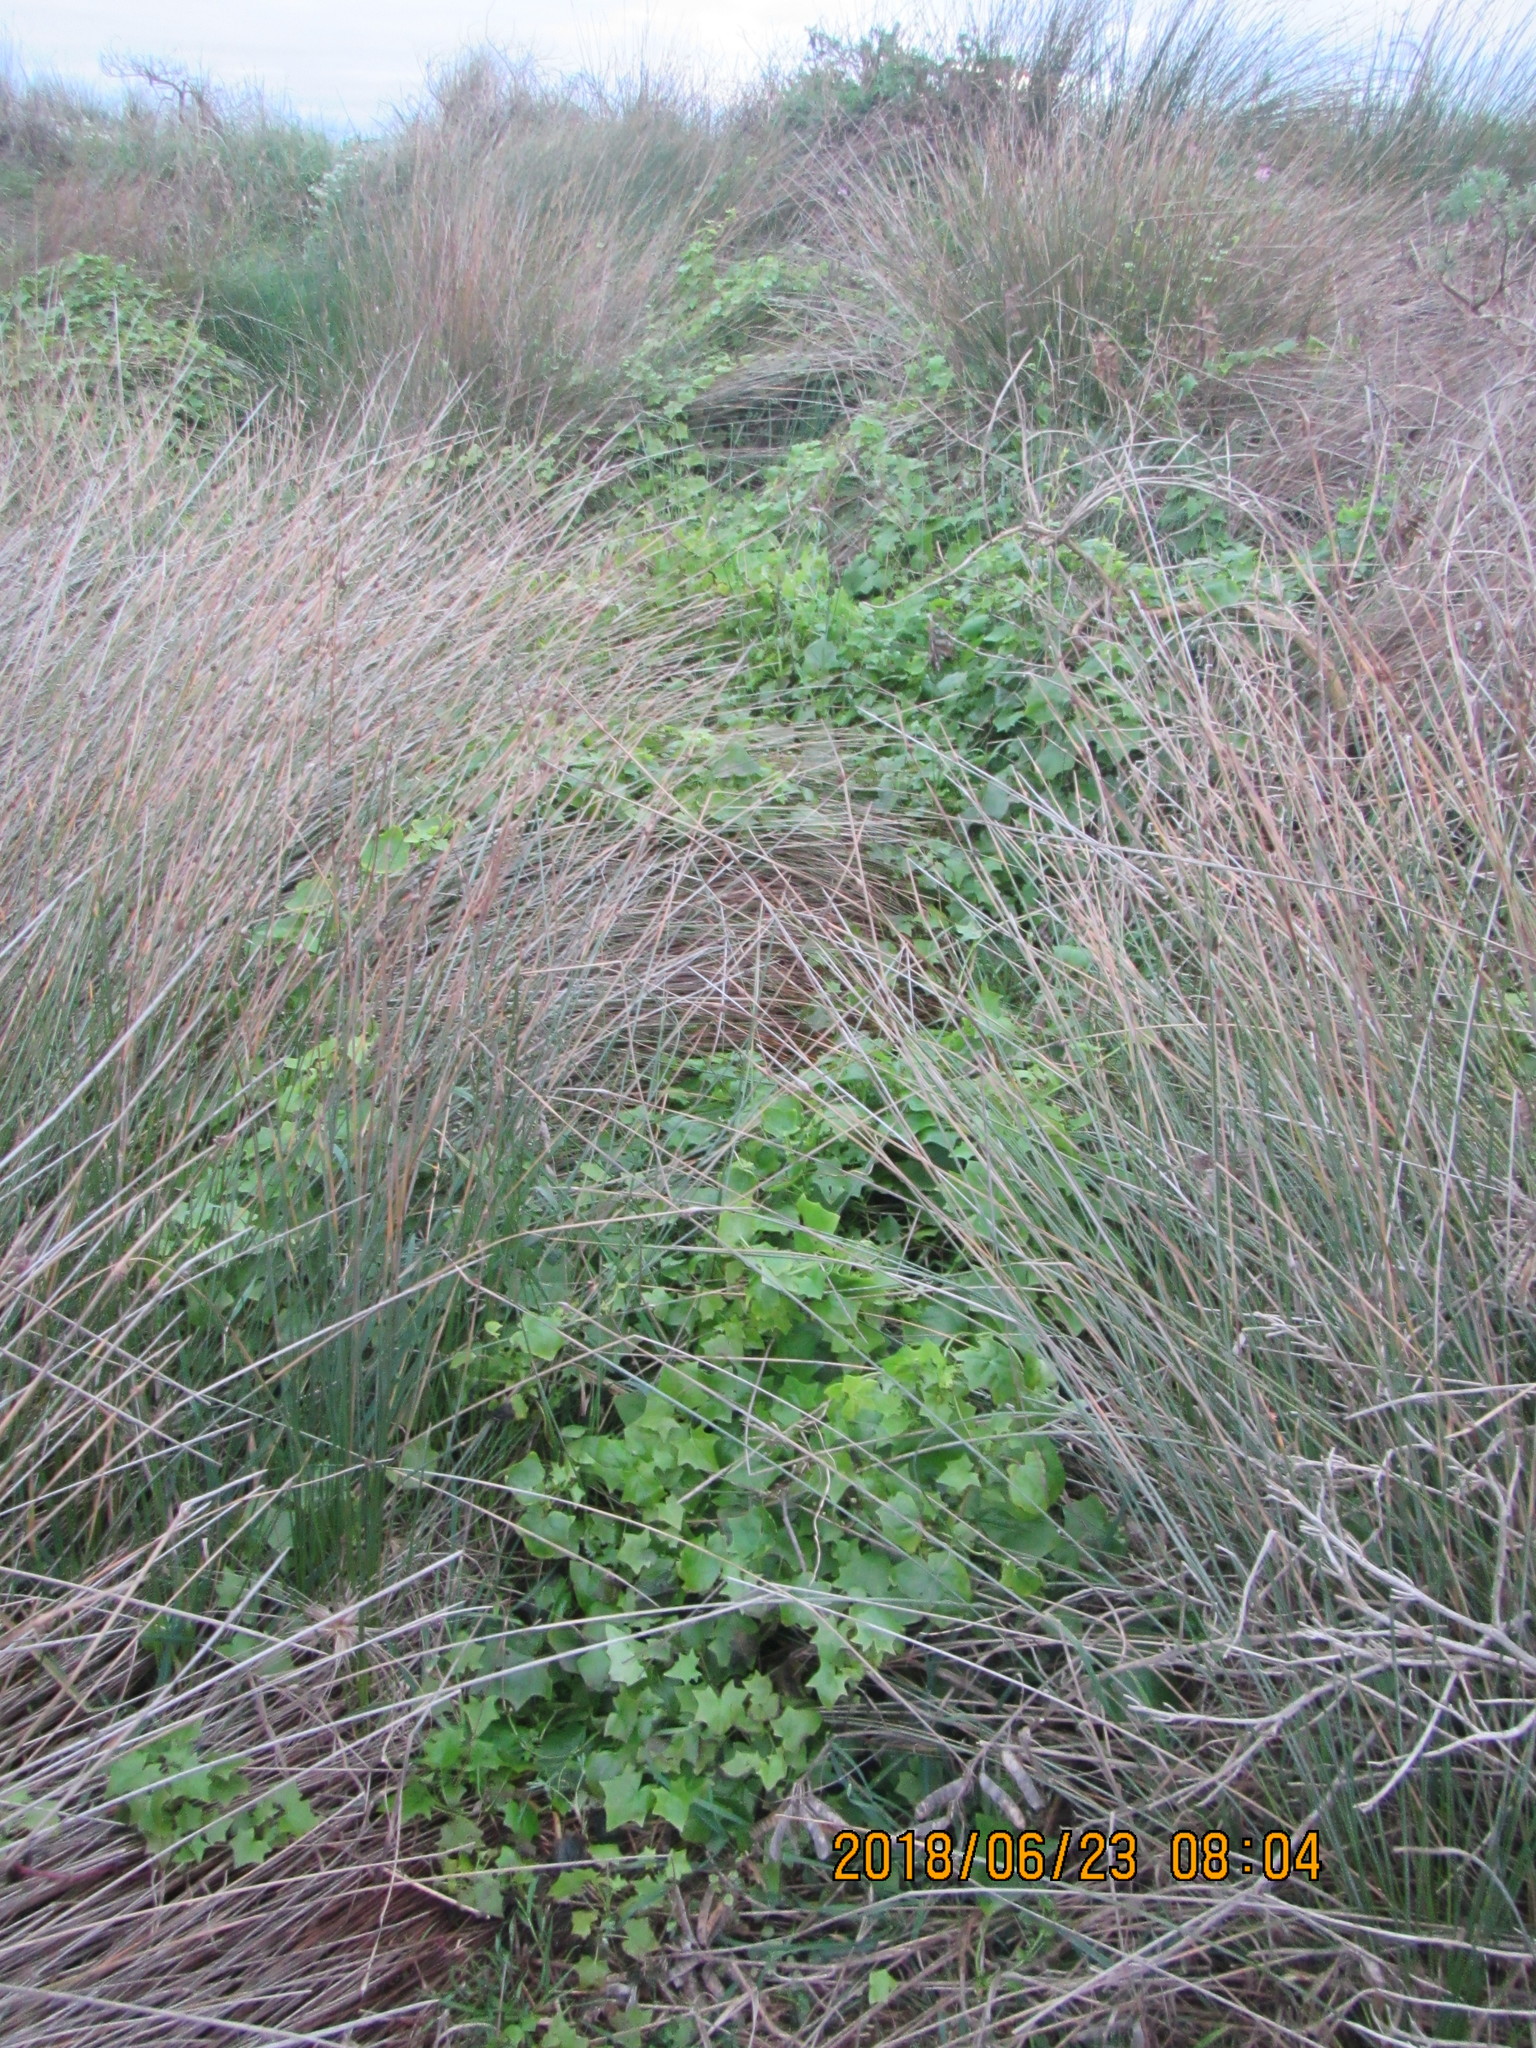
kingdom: Plantae
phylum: Tracheophyta
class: Magnoliopsida
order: Asterales
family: Asteraceae
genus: Delairea
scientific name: Delairea odorata
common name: Cape-ivy
